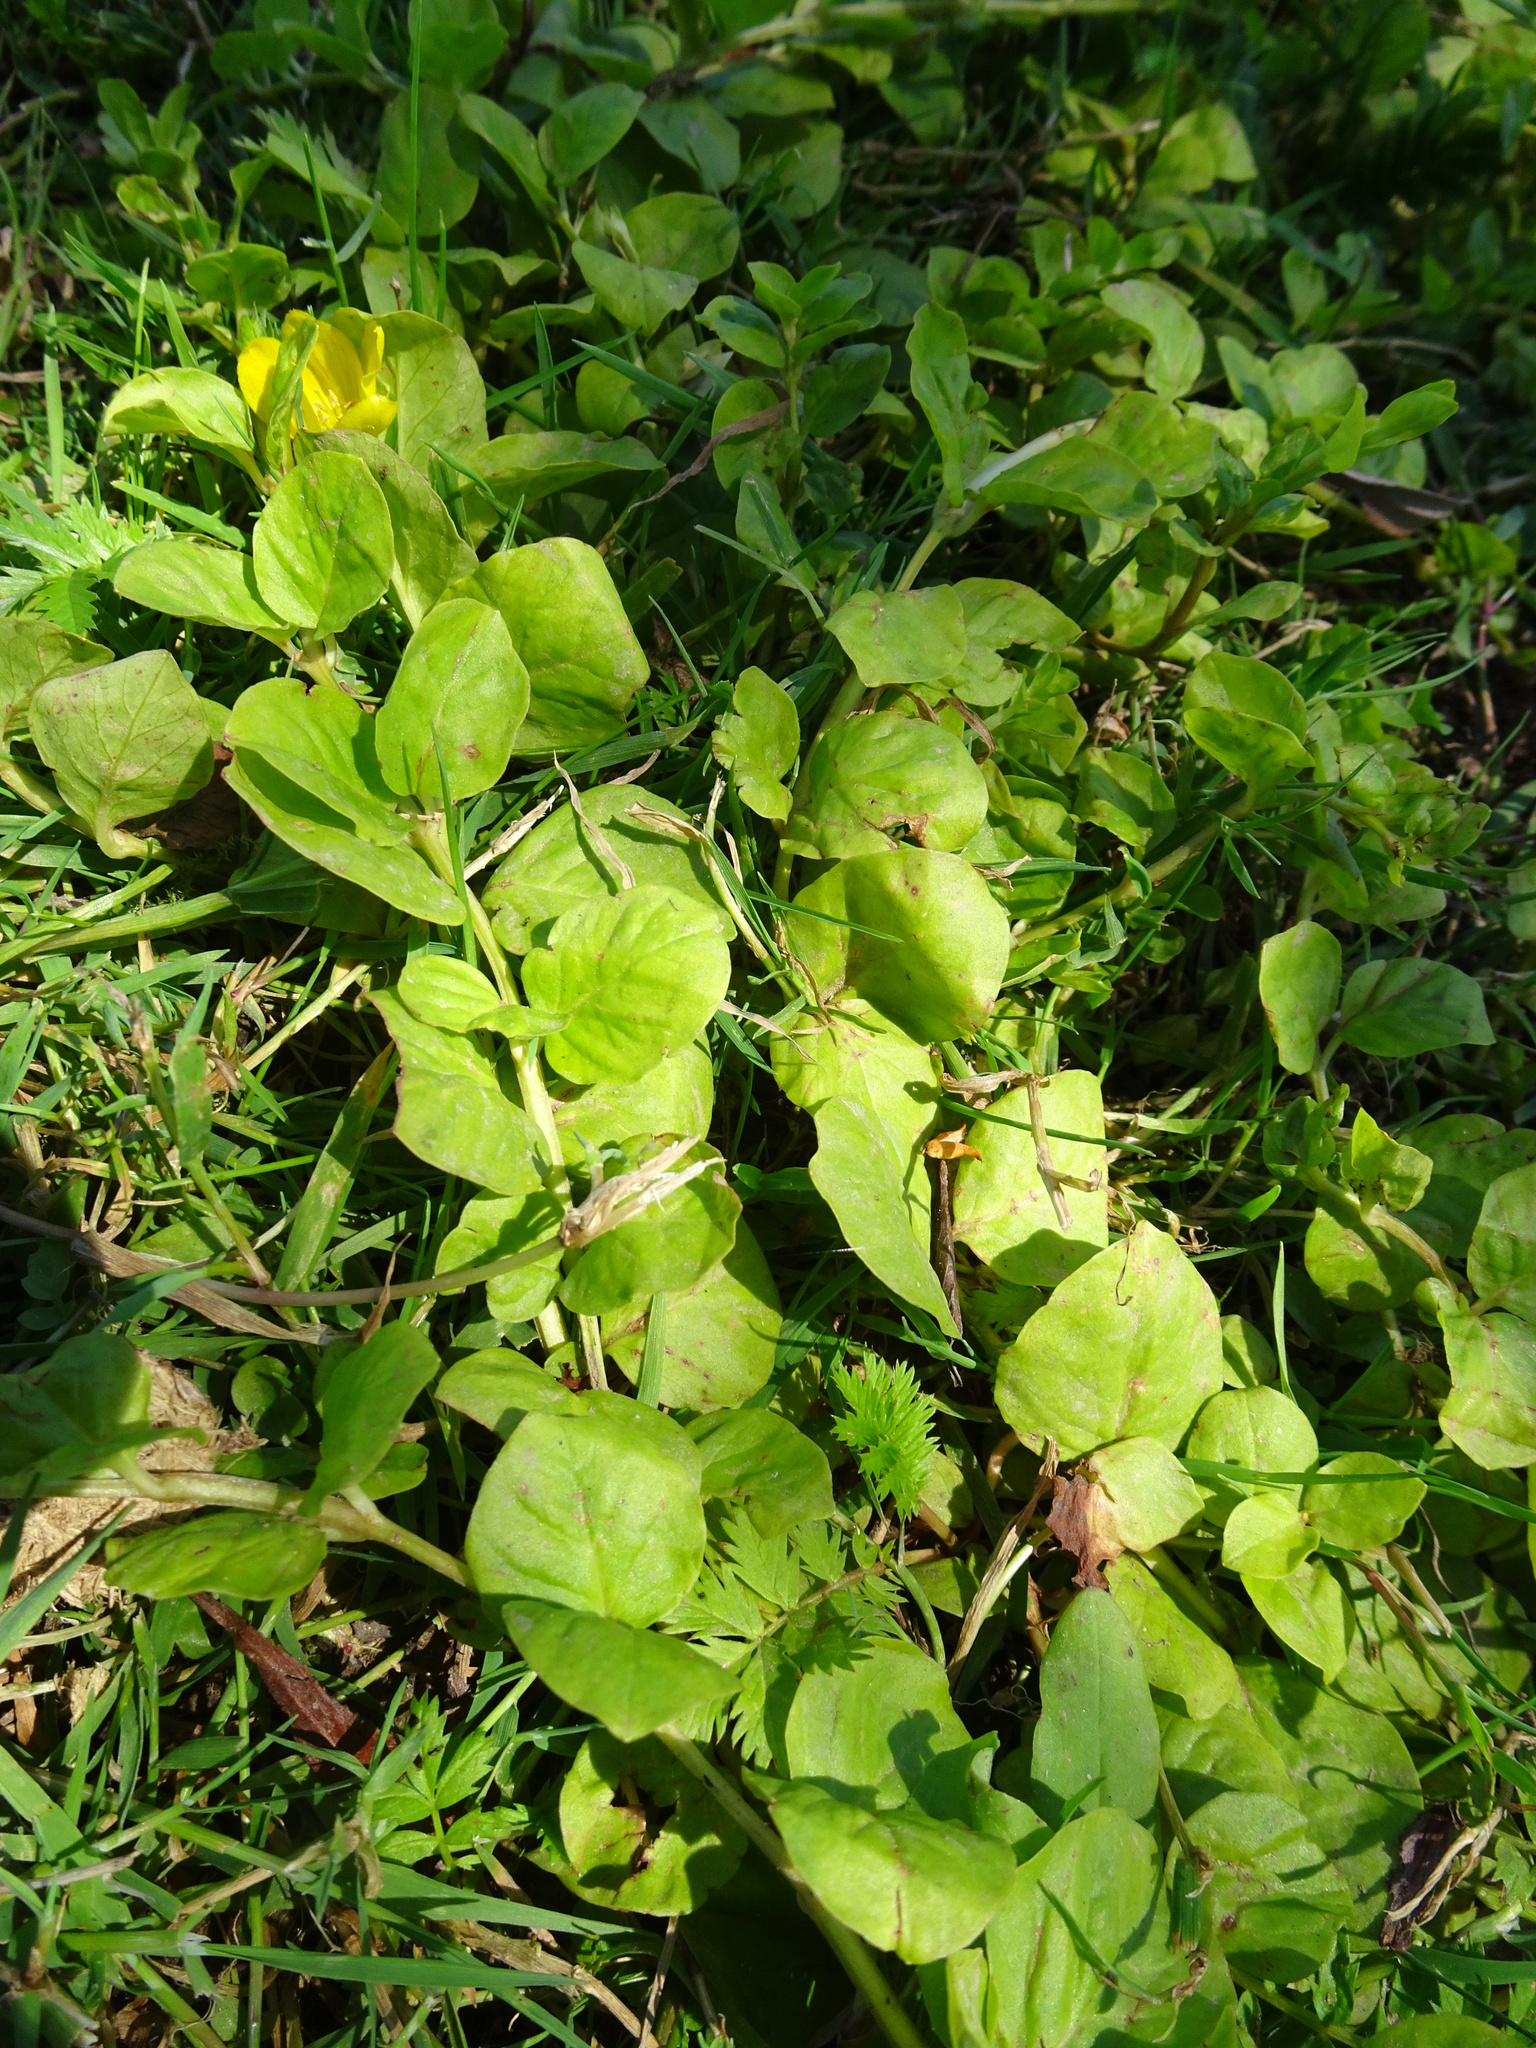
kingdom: Plantae
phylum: Tracheophyta
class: Magnoliopsida
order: Ericales
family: Primulaceae
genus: Lysimachia
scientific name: Lysimachia nummularia
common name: Moneywort
